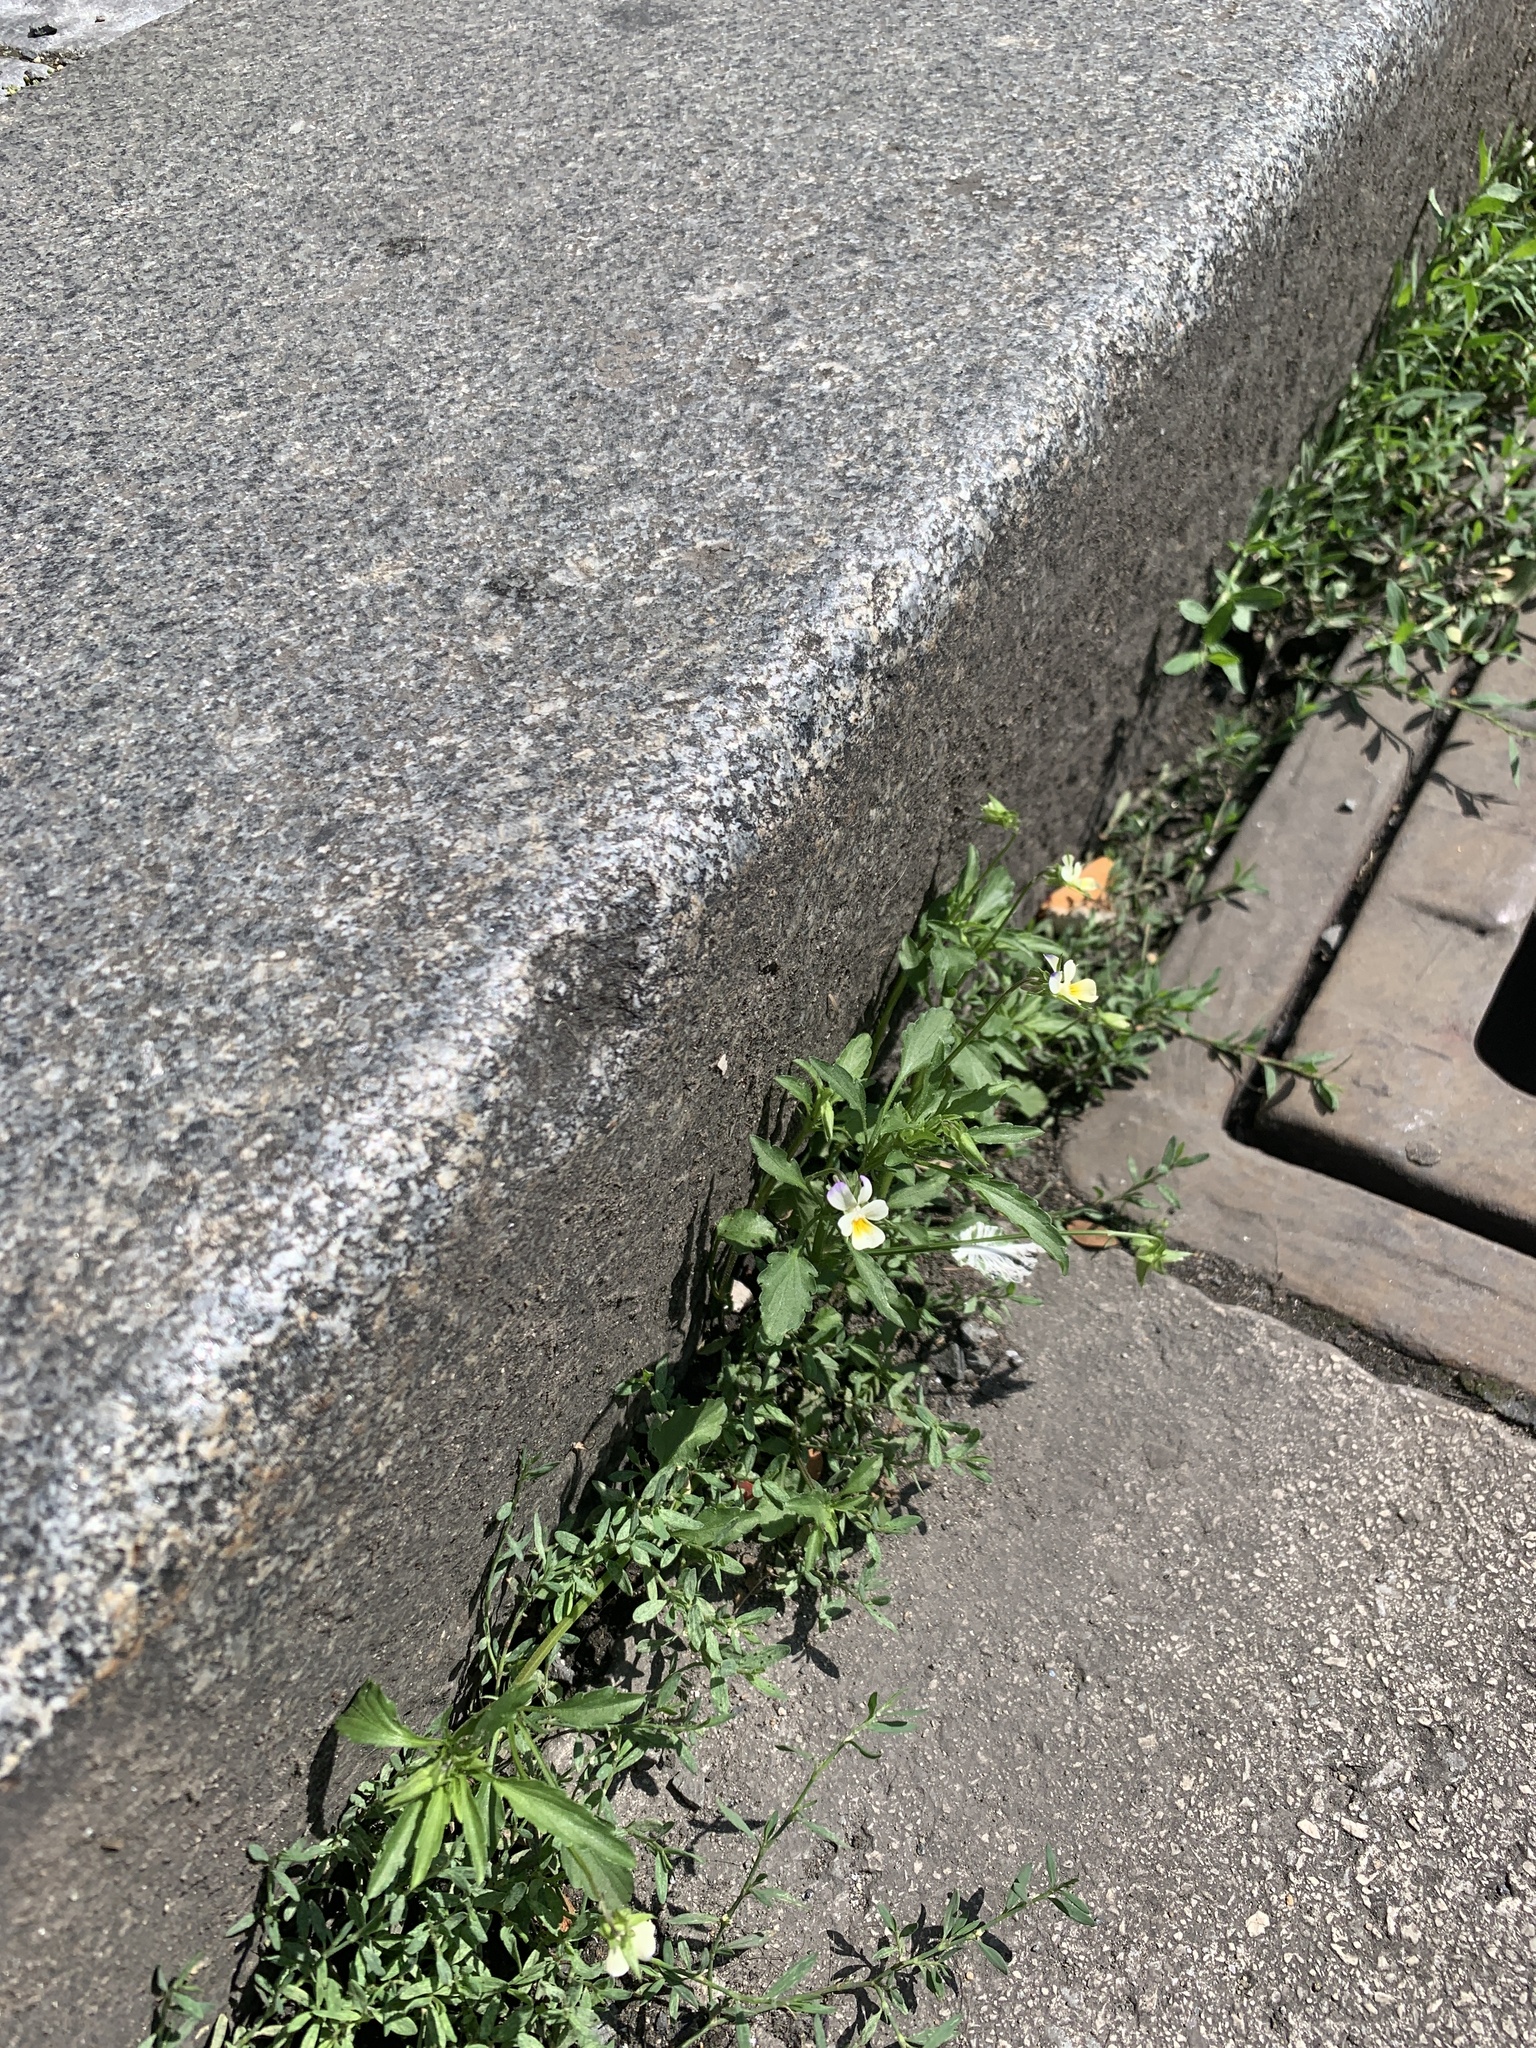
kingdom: Plantae
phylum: Tracheophyta
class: Magnoliopsida
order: Malpighiales
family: Violaceae
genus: Viola
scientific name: Viola arvensis
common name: Field pansy
